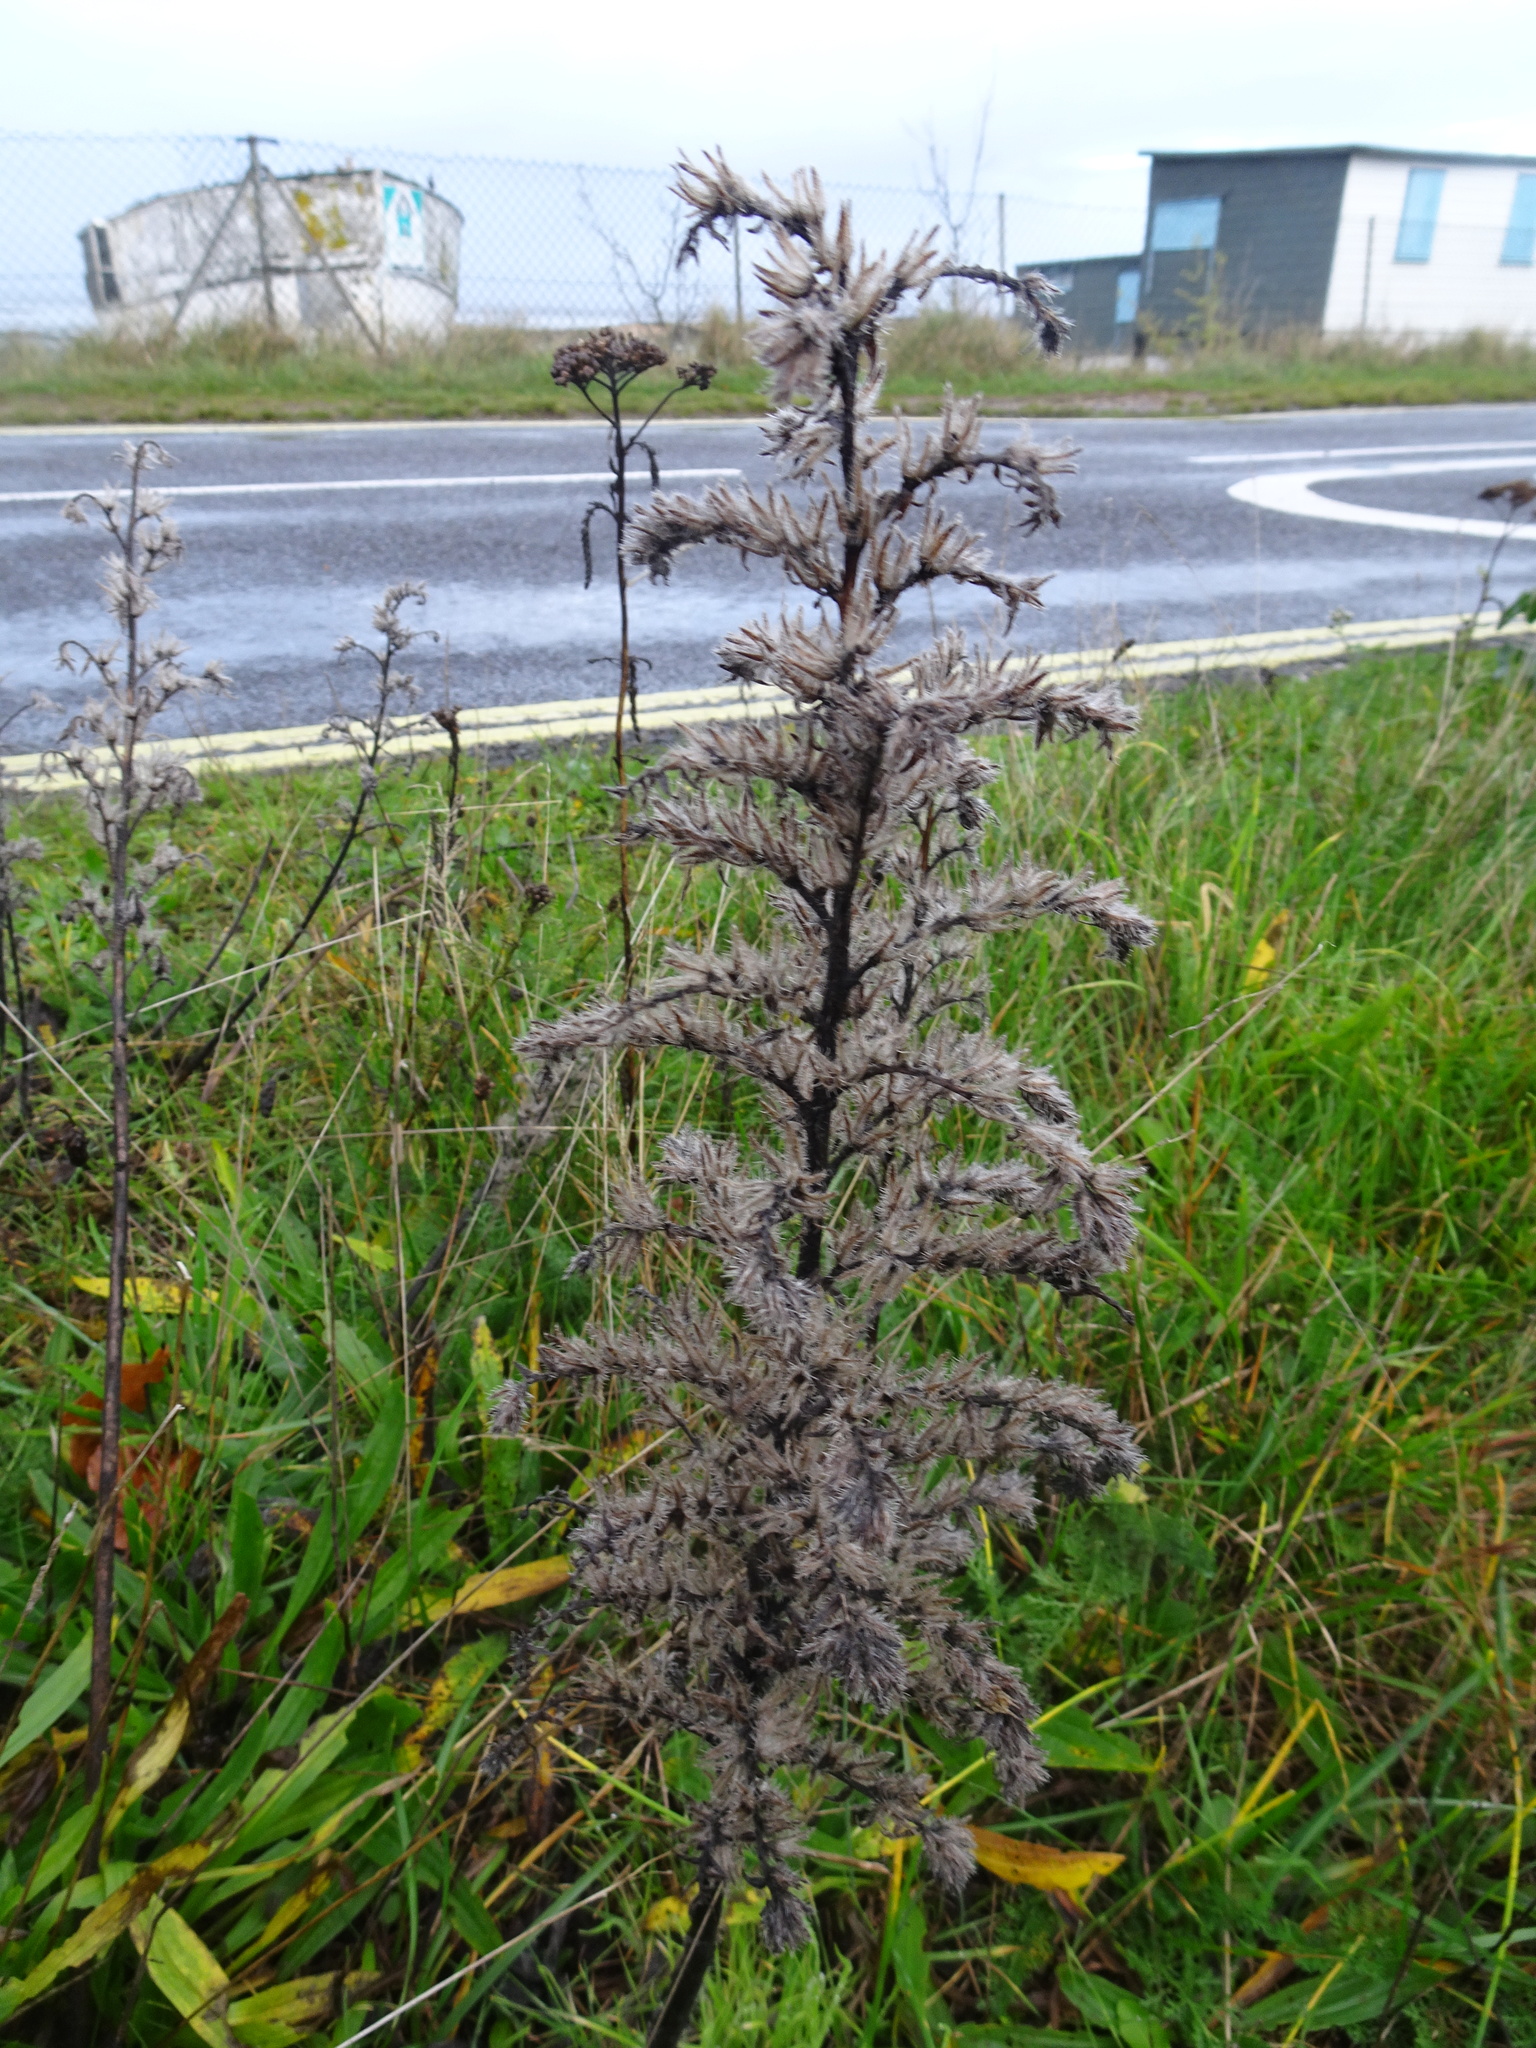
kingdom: Plantae
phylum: Tracheophyta
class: Magnoliopsida
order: Boraginales
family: Boraginaceae
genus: Echium
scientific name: Echium vulgare
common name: Common viper's bugloss
